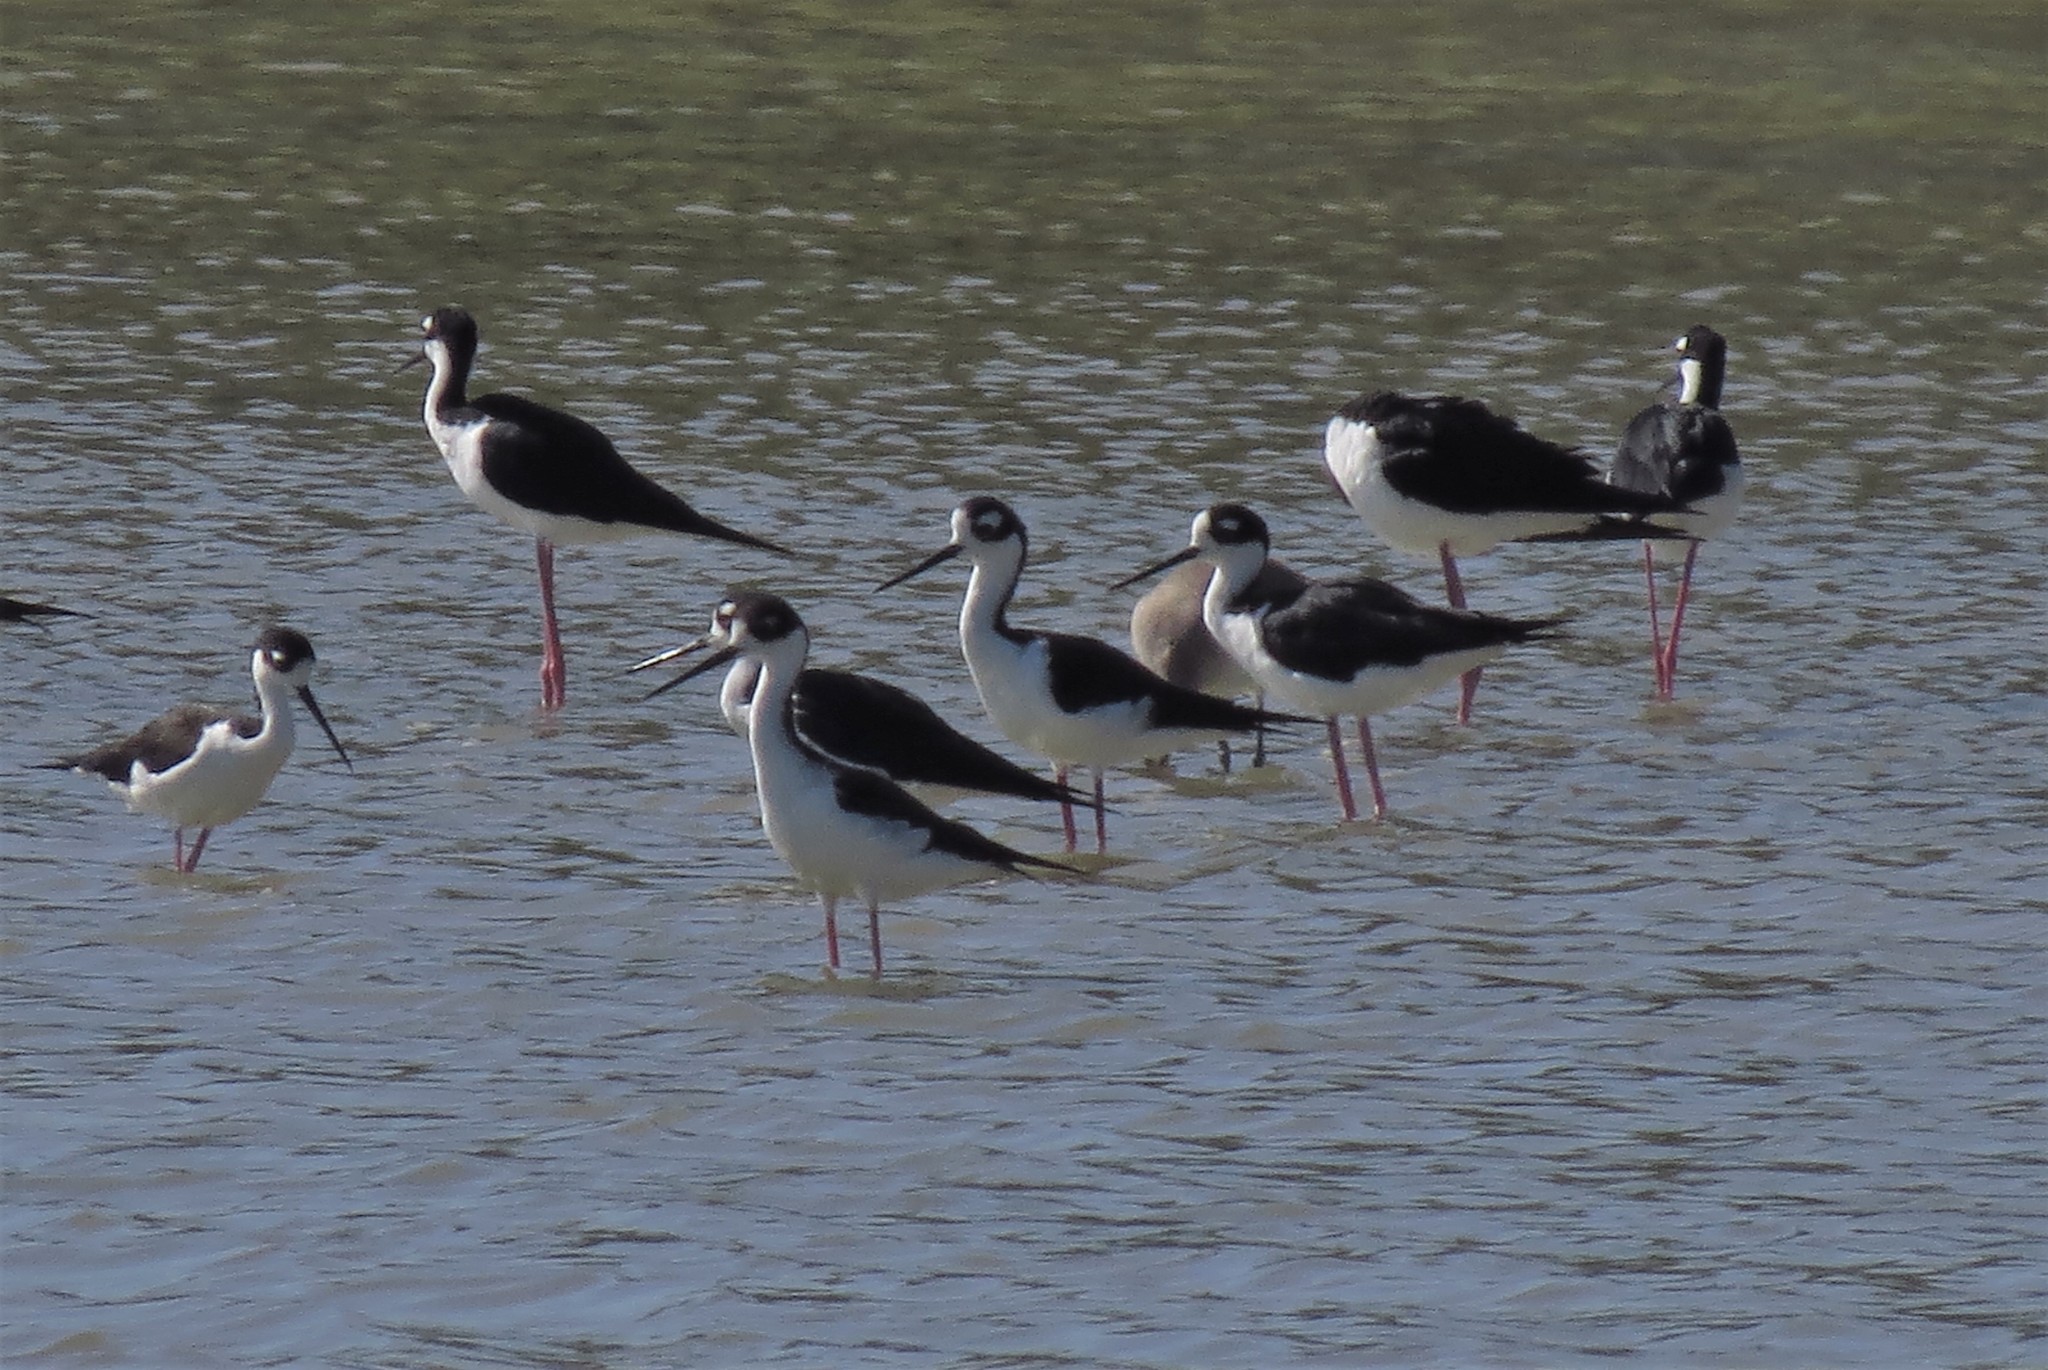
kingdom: Animalia
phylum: Chordata
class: Aves
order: Charadriiformes
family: Recurvirostridae
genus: Himantopus
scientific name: Himantopus mexicanus
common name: Black-necked stilt
